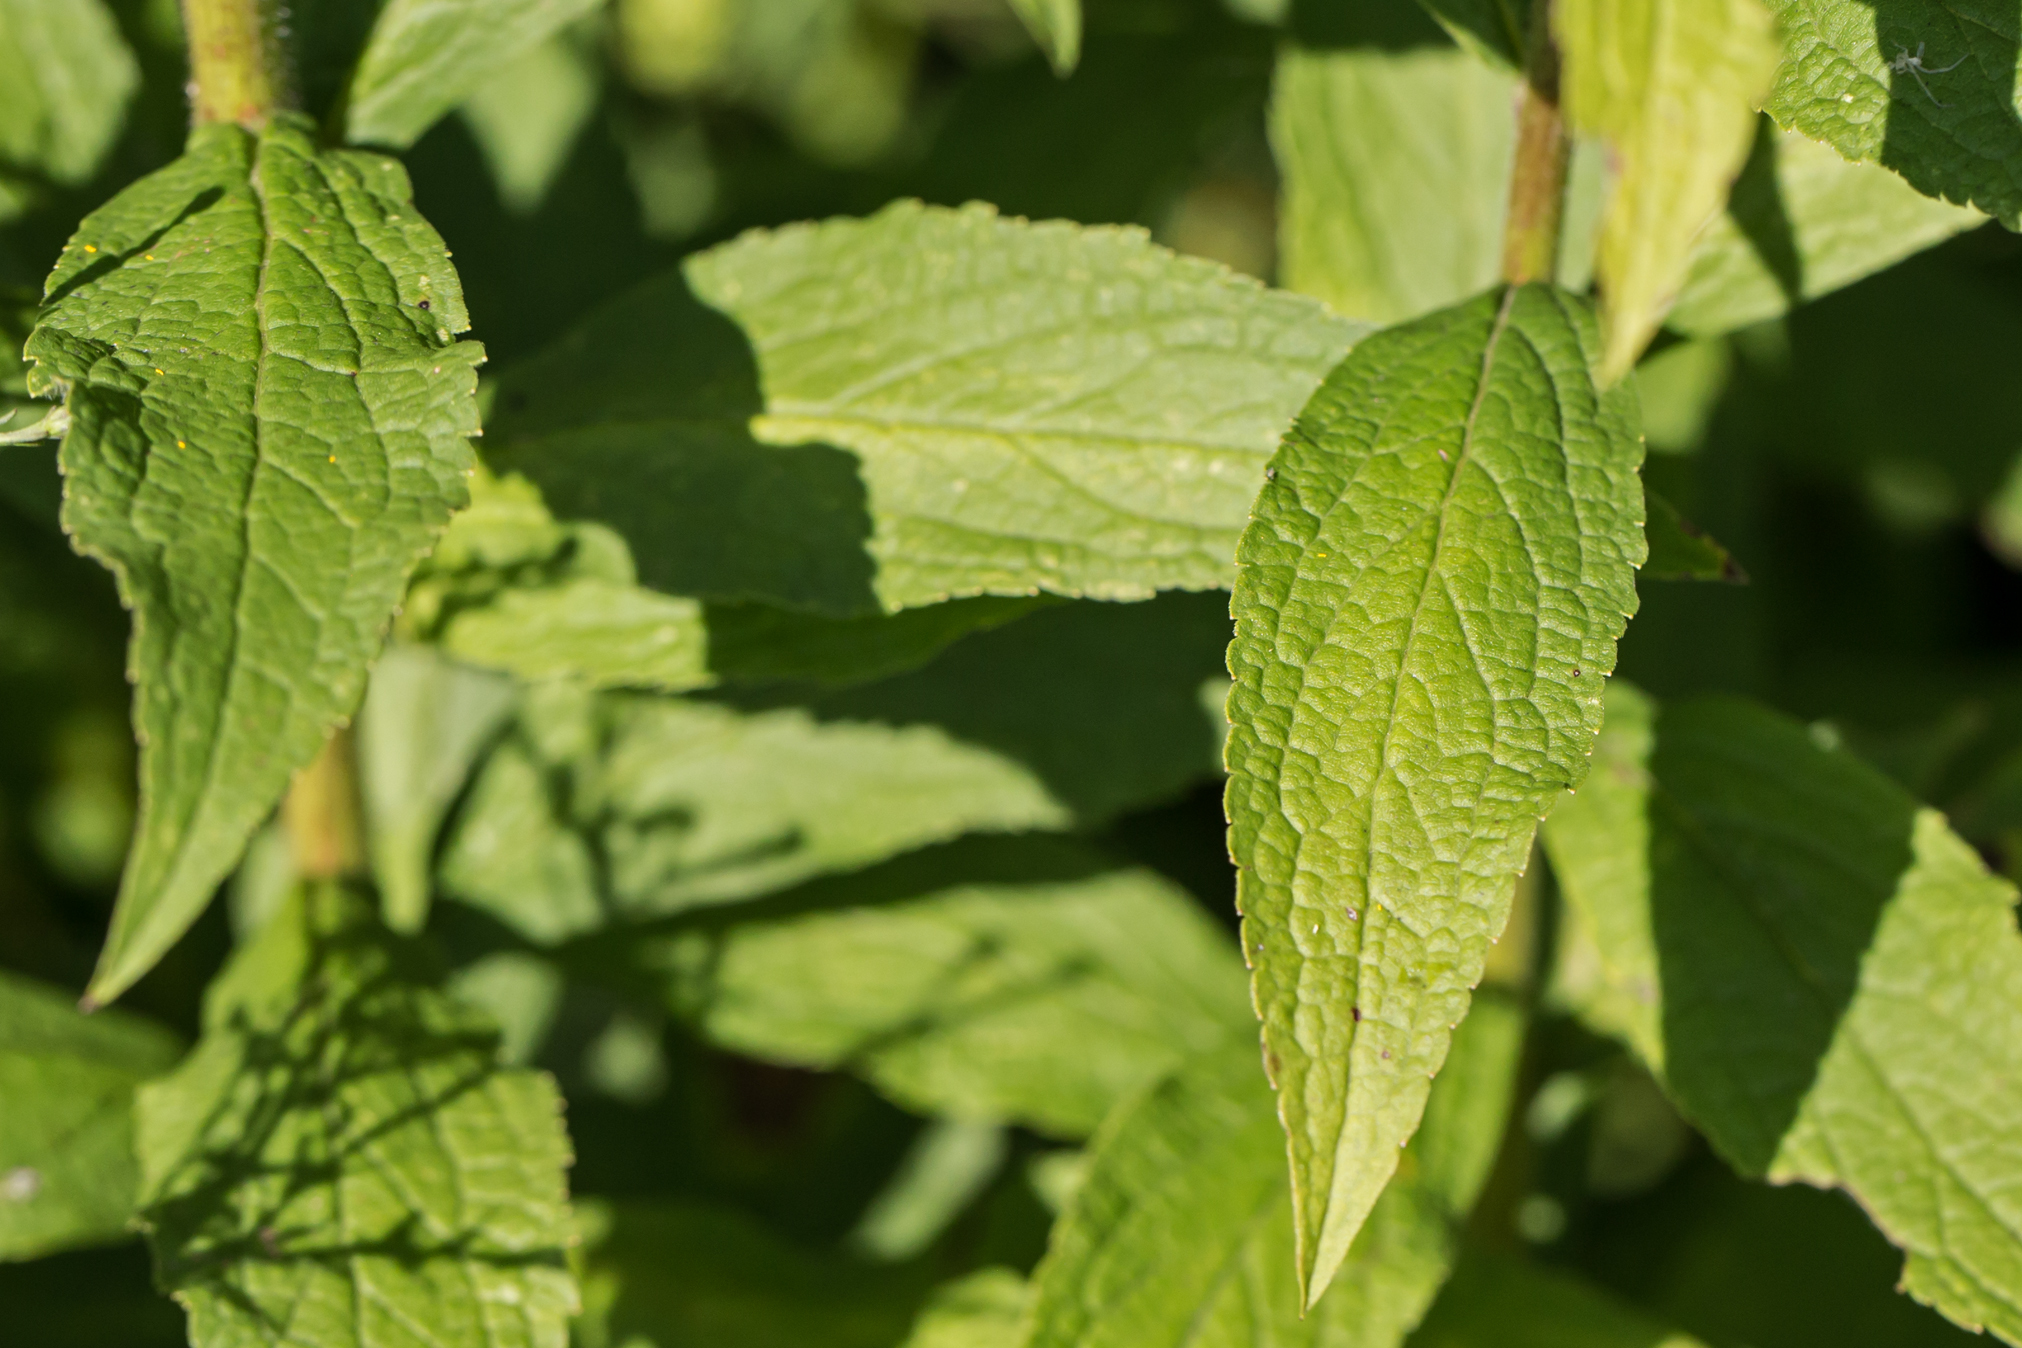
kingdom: Plantae
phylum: Tracheophyta
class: Magnoliopsida
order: Asterales
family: Asteraceae
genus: Solidago
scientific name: Solidago rugosa
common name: Rough-stemmed goldenrod
